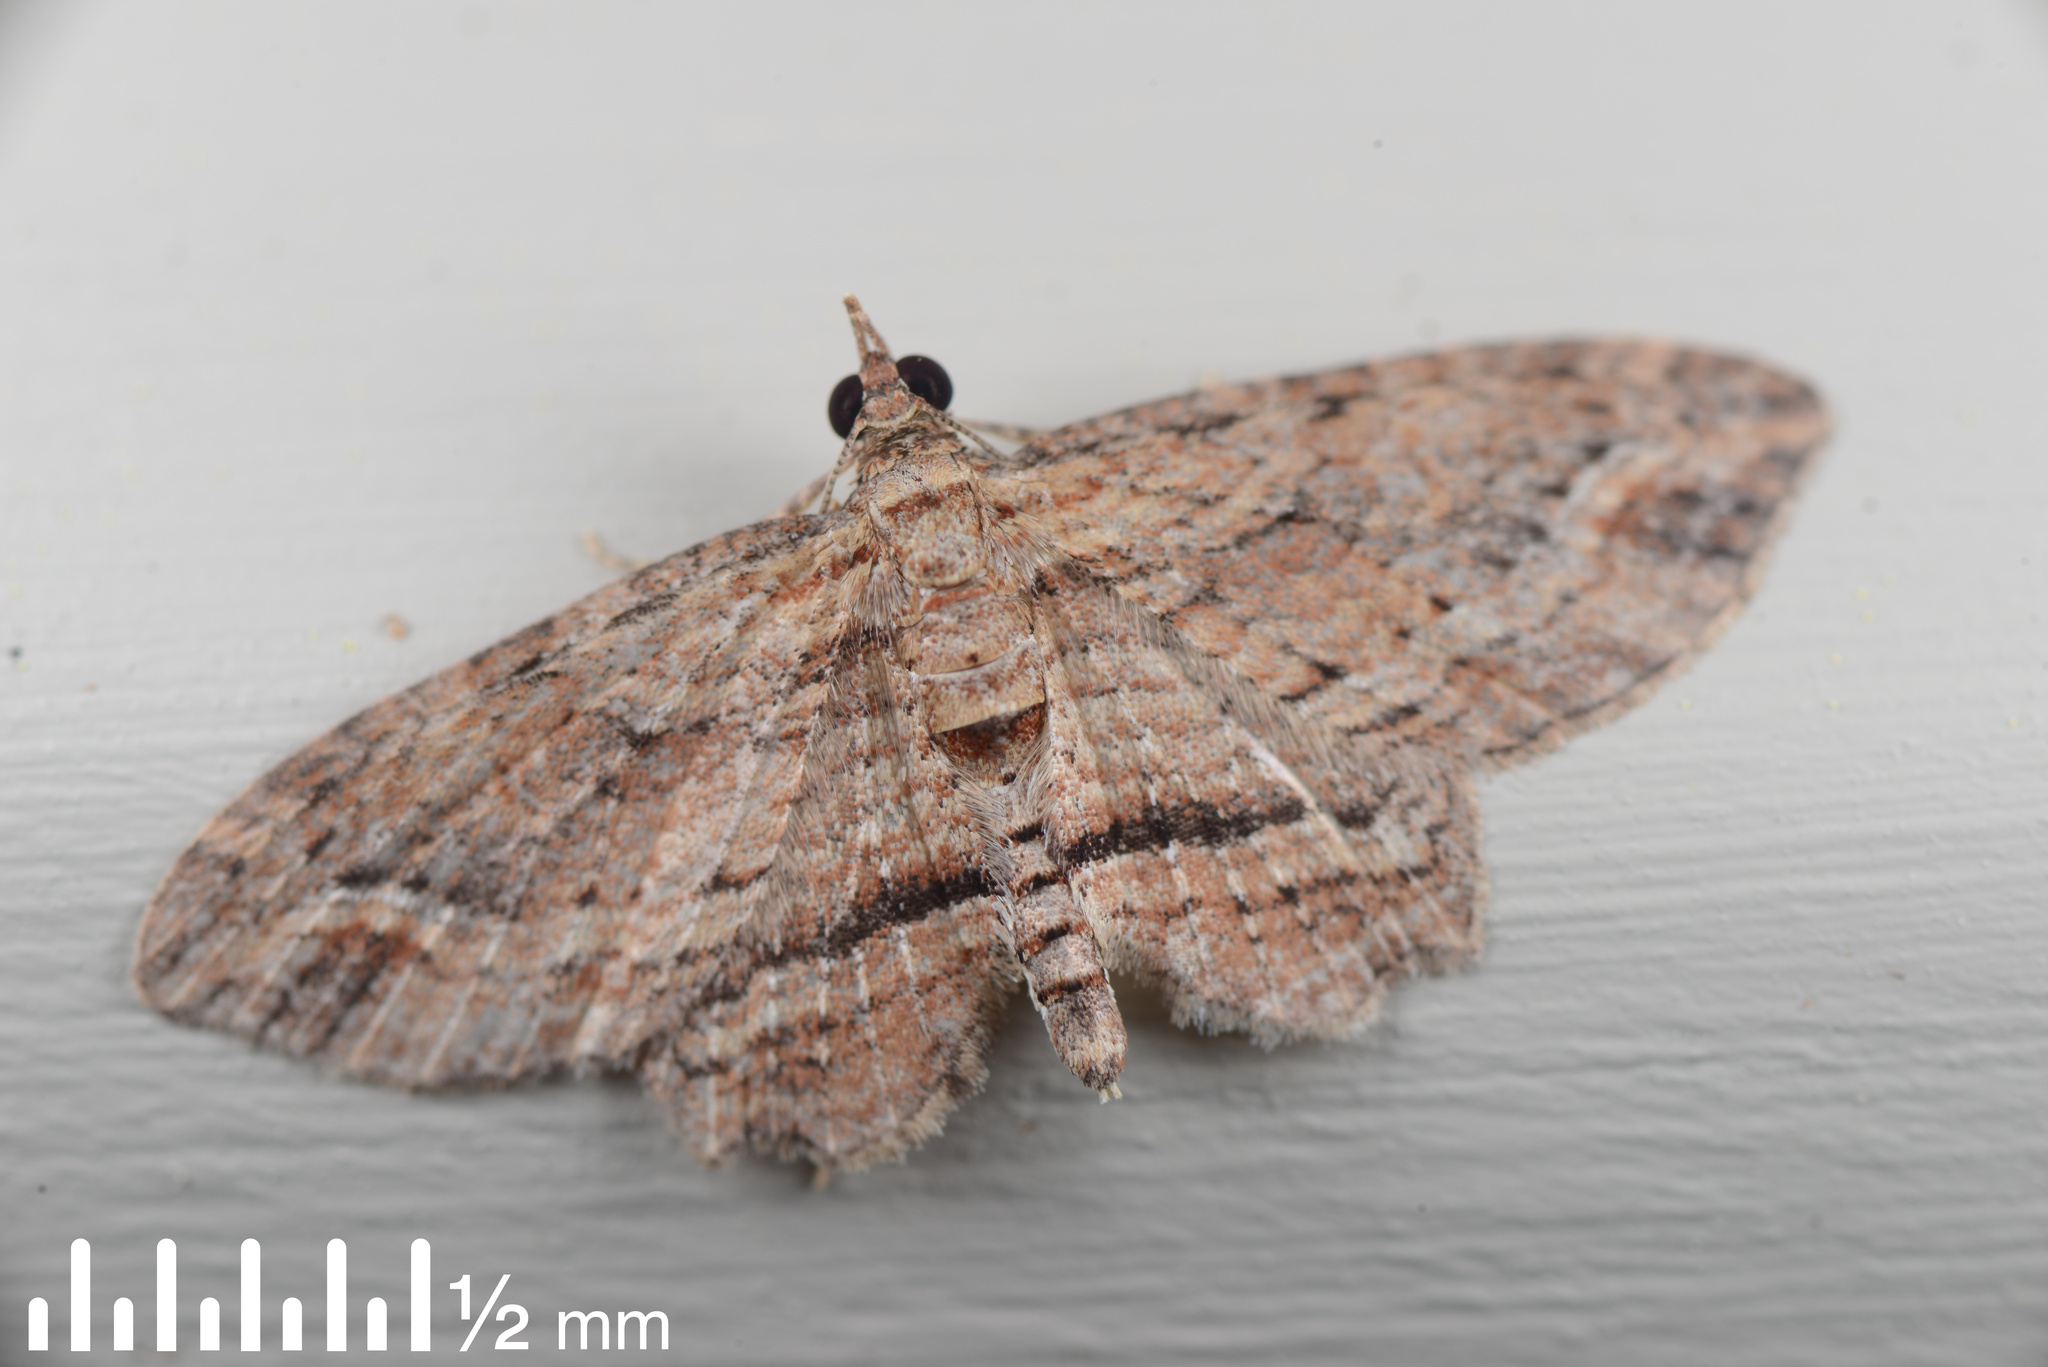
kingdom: Animalia
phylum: Arthropoda
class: Insecta
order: Lepidoptera
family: Geometridae
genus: Chloroclystis
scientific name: Chloroclystis filata
